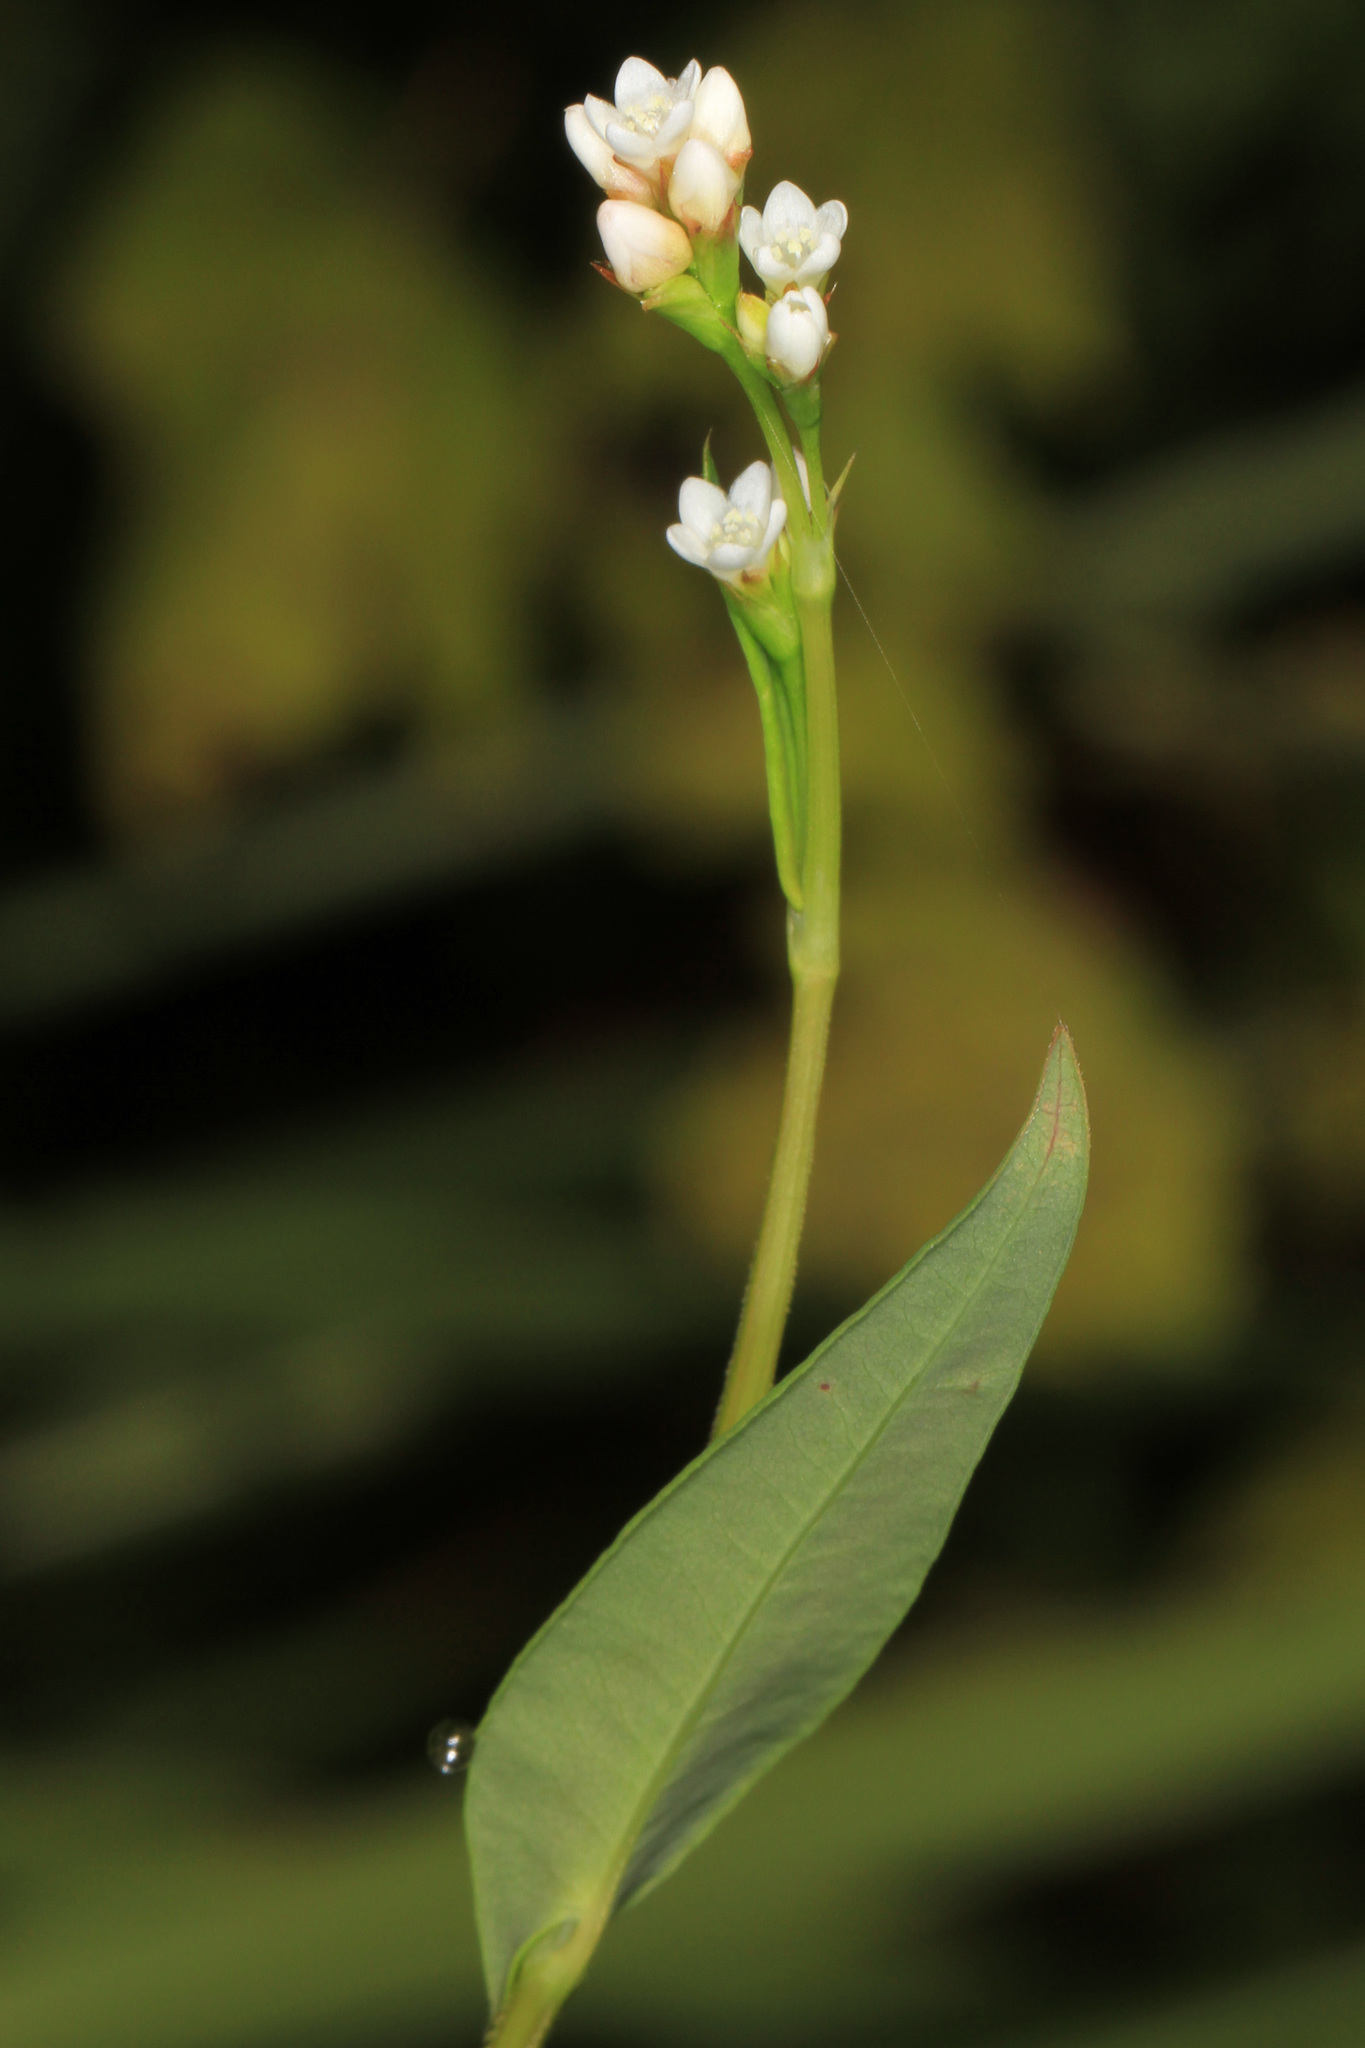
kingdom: Plantae
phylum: Tracheophyta
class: Magnoliopsida
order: Caryophyllales
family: Polygonaceae
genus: Persicaria
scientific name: Persicaria sagittata
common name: American tearthumb
